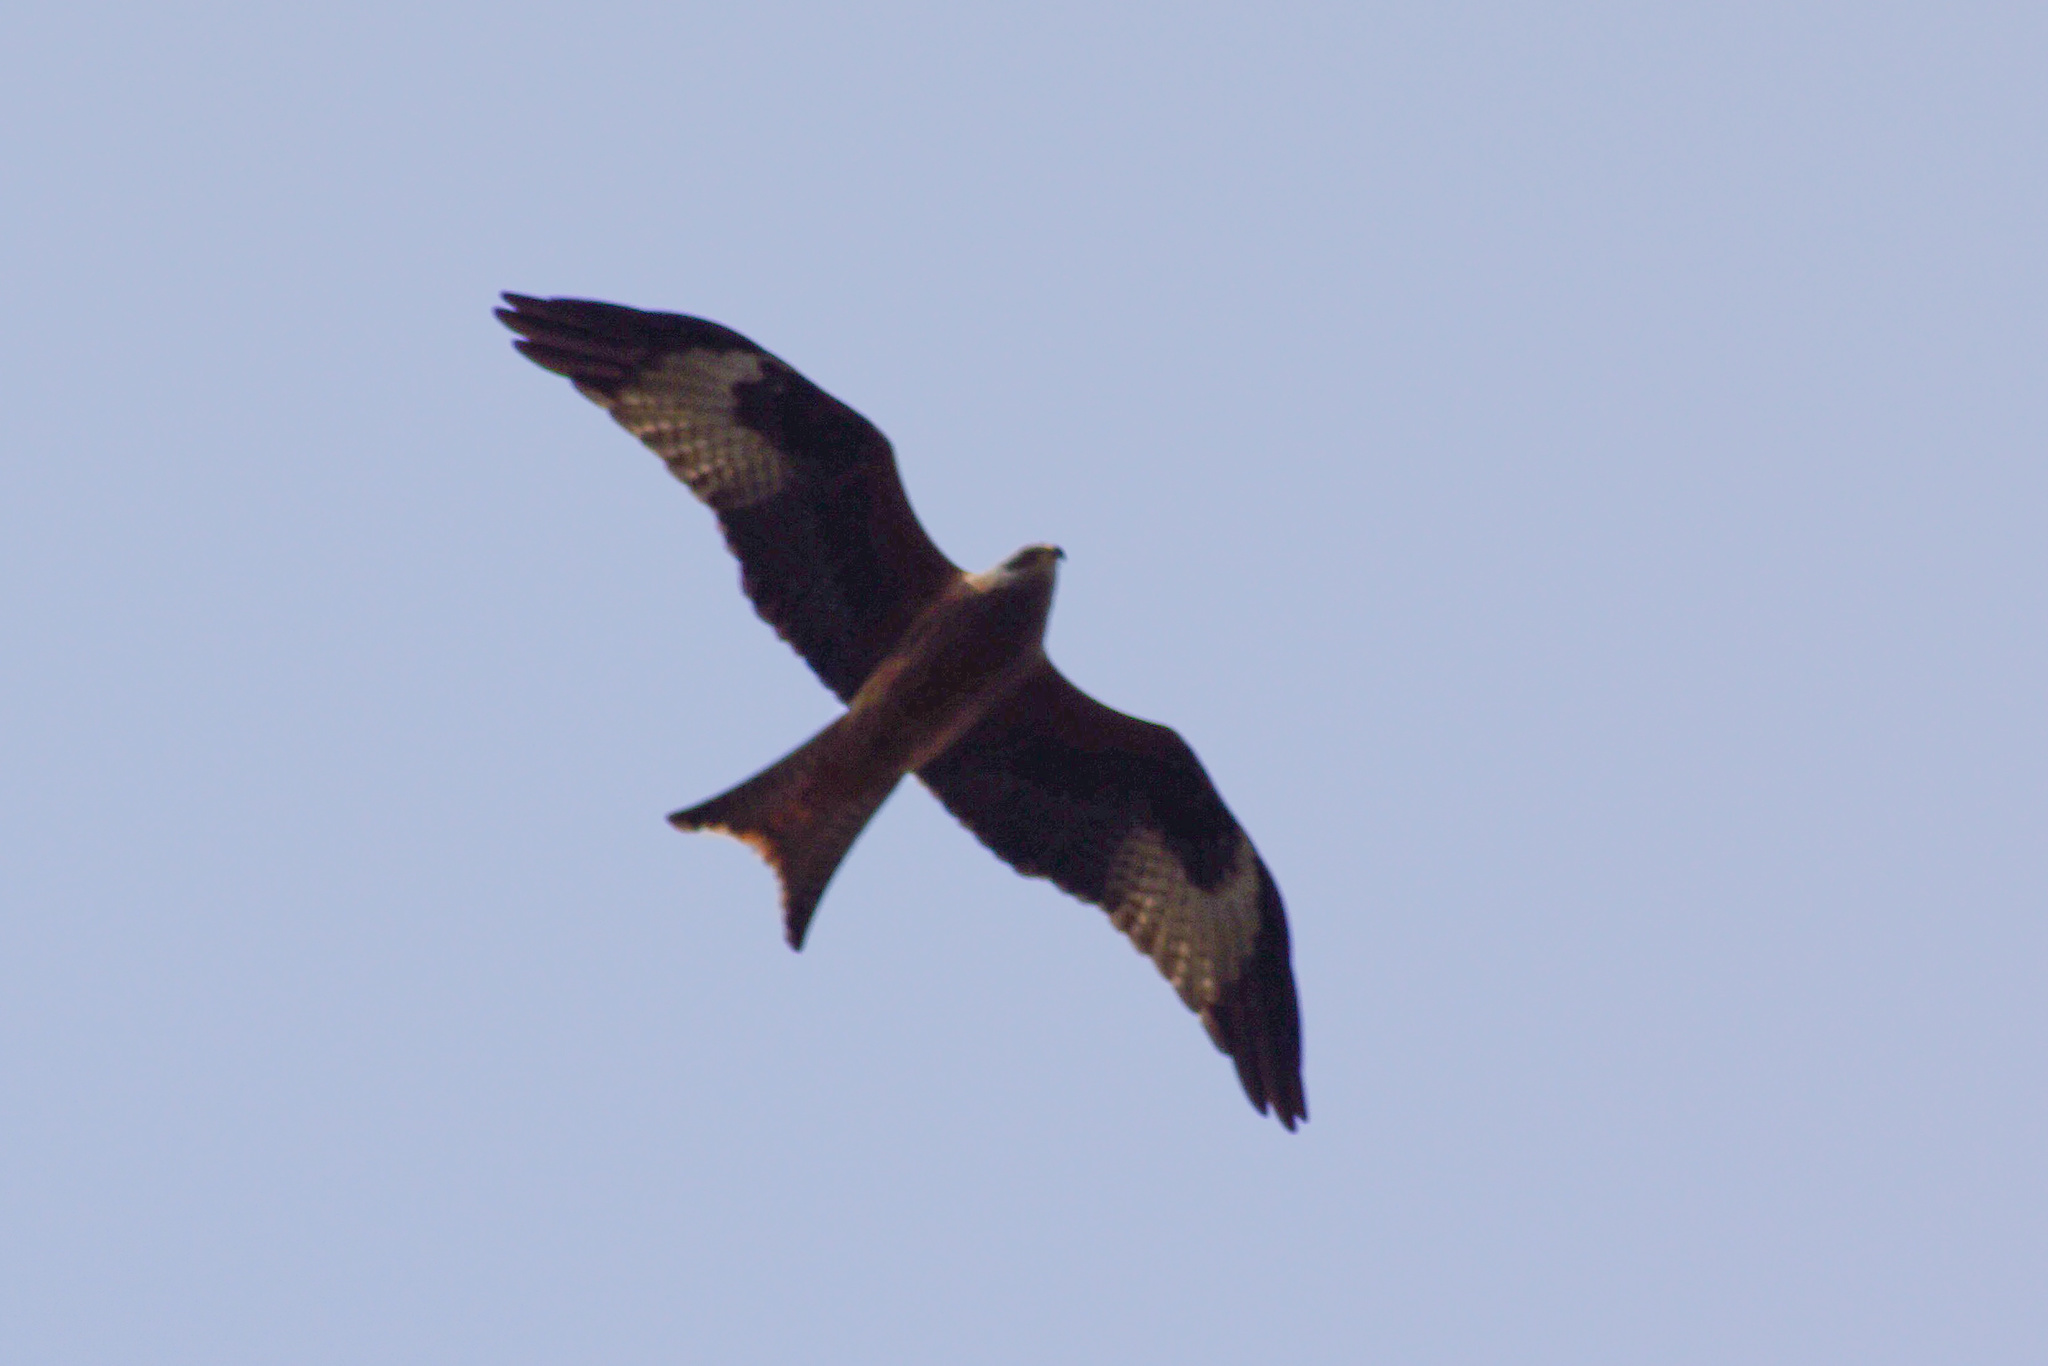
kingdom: Animalia
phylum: Chordata
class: Aves
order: Accipitriformes
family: Accipitridae
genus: Milvus
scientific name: Milvus milvus
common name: Red kite
